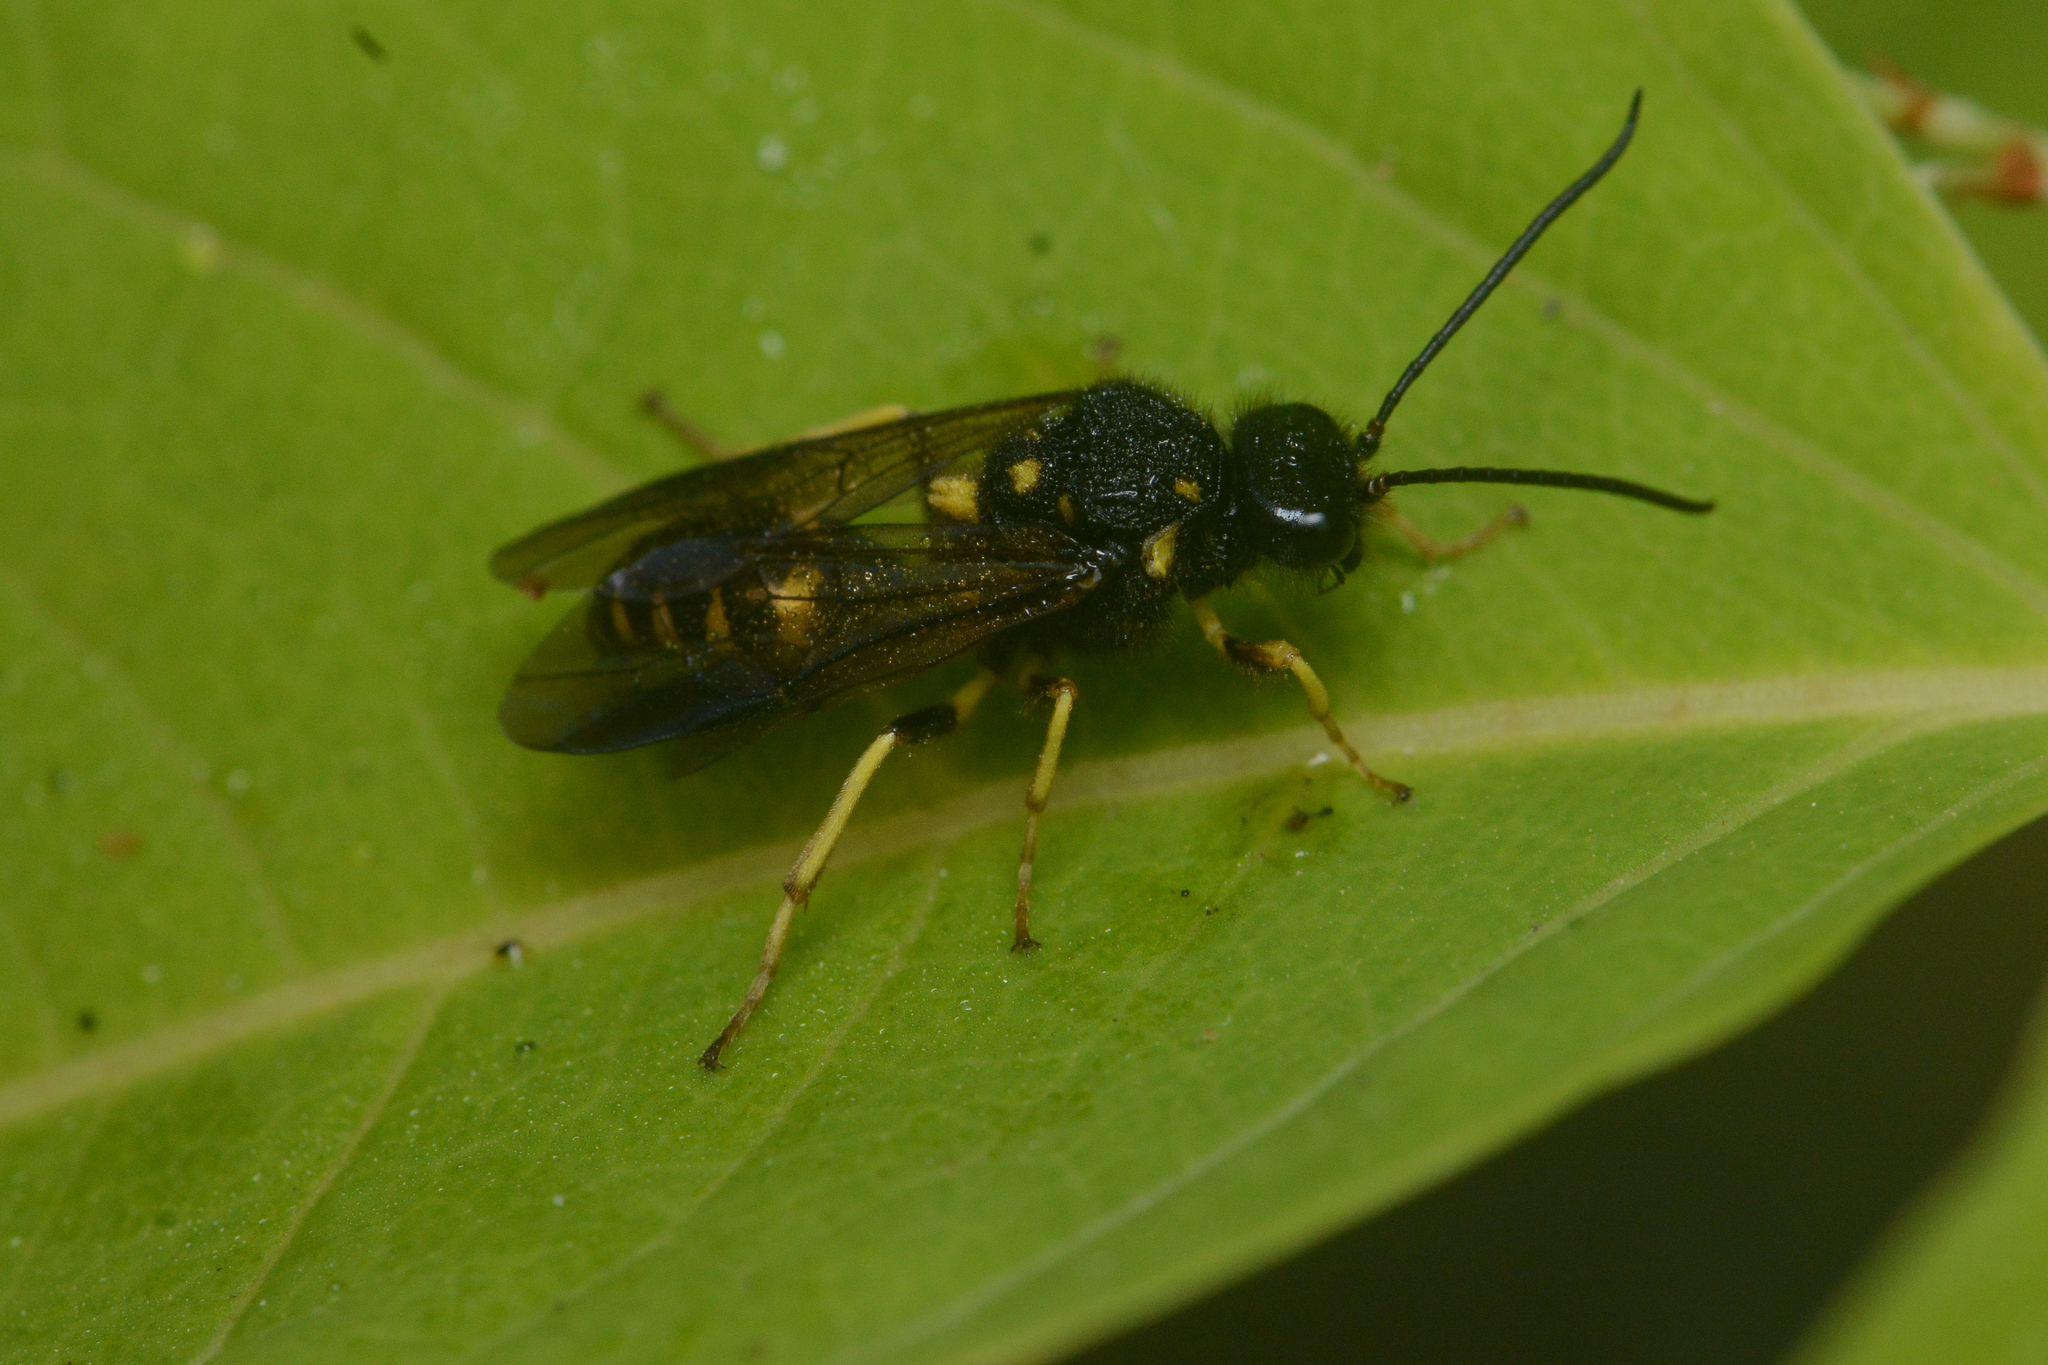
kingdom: Animalia
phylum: Arthropoda
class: Insecta
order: Hymenoptera
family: Trigonalidae
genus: Bareogonalos
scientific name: Bareogonalos
